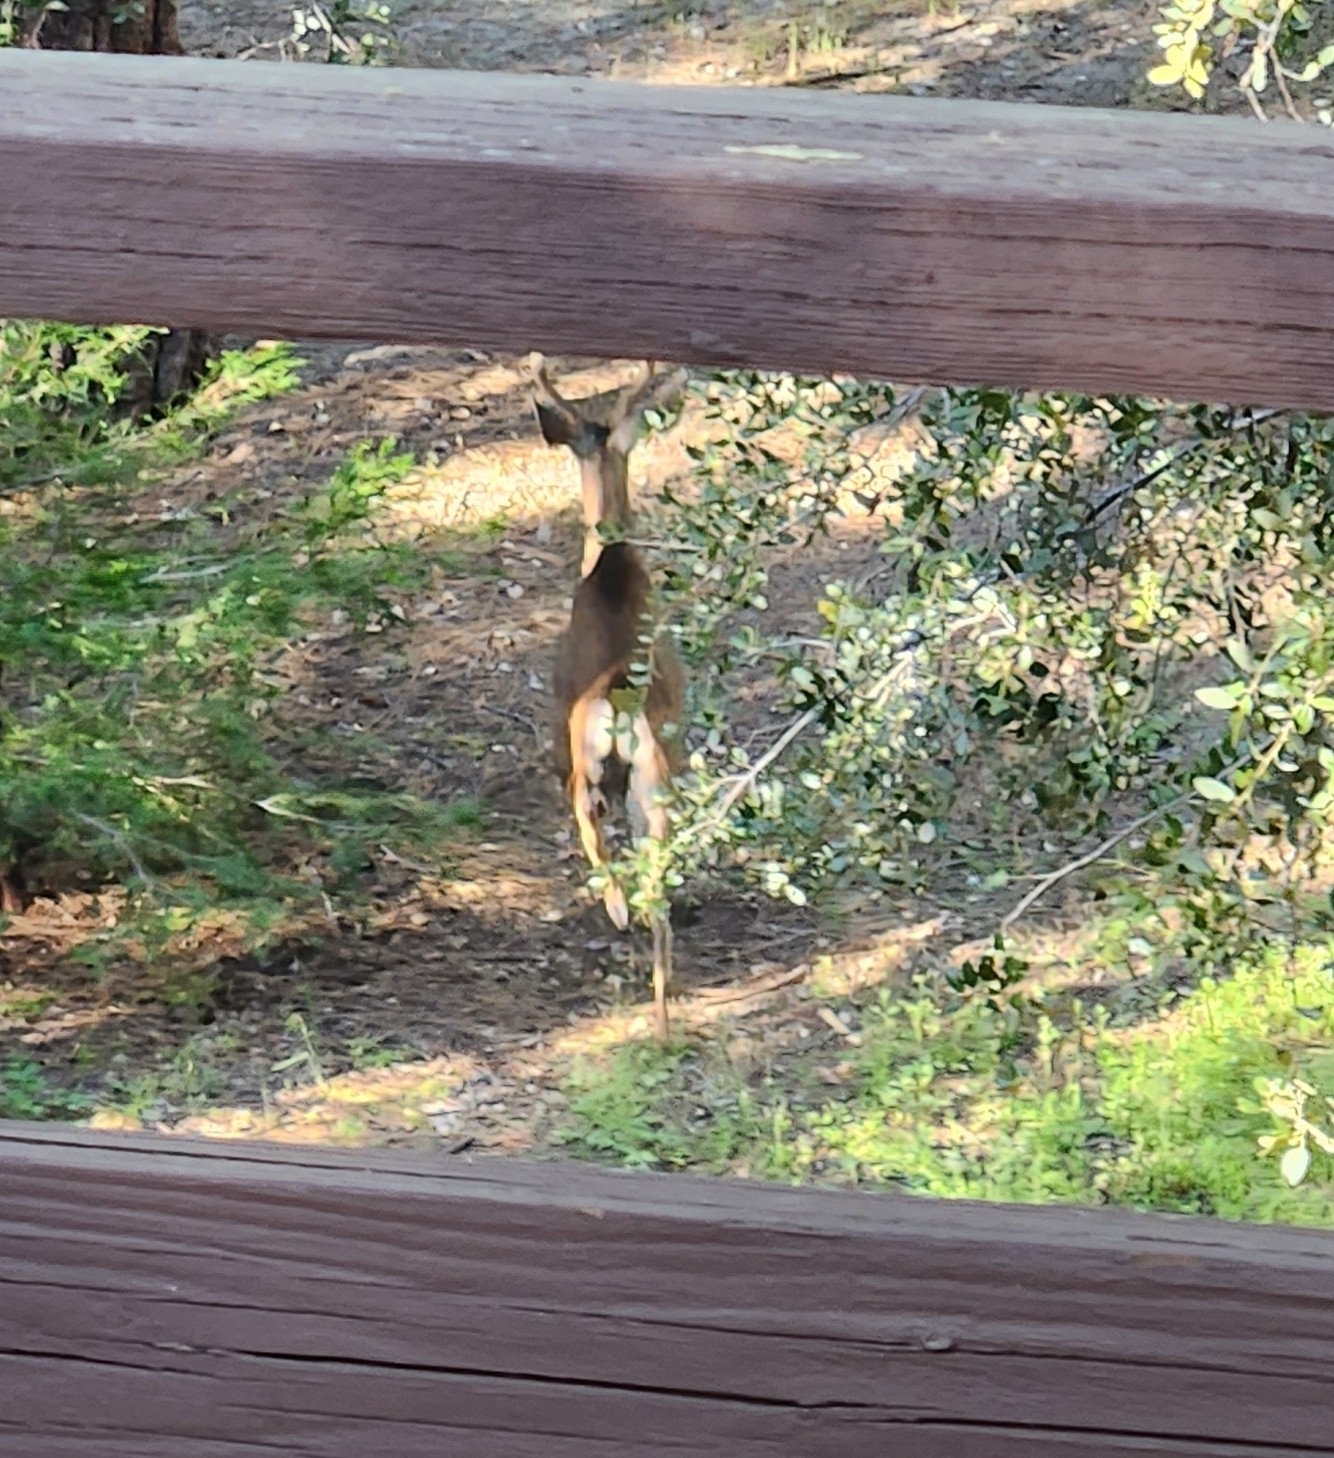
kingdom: Animalia
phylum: Chordata
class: Mammalia
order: Artiodactyla
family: Cervidae
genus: Odocoileus
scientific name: Odocoileus hemionus
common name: Mule deer
